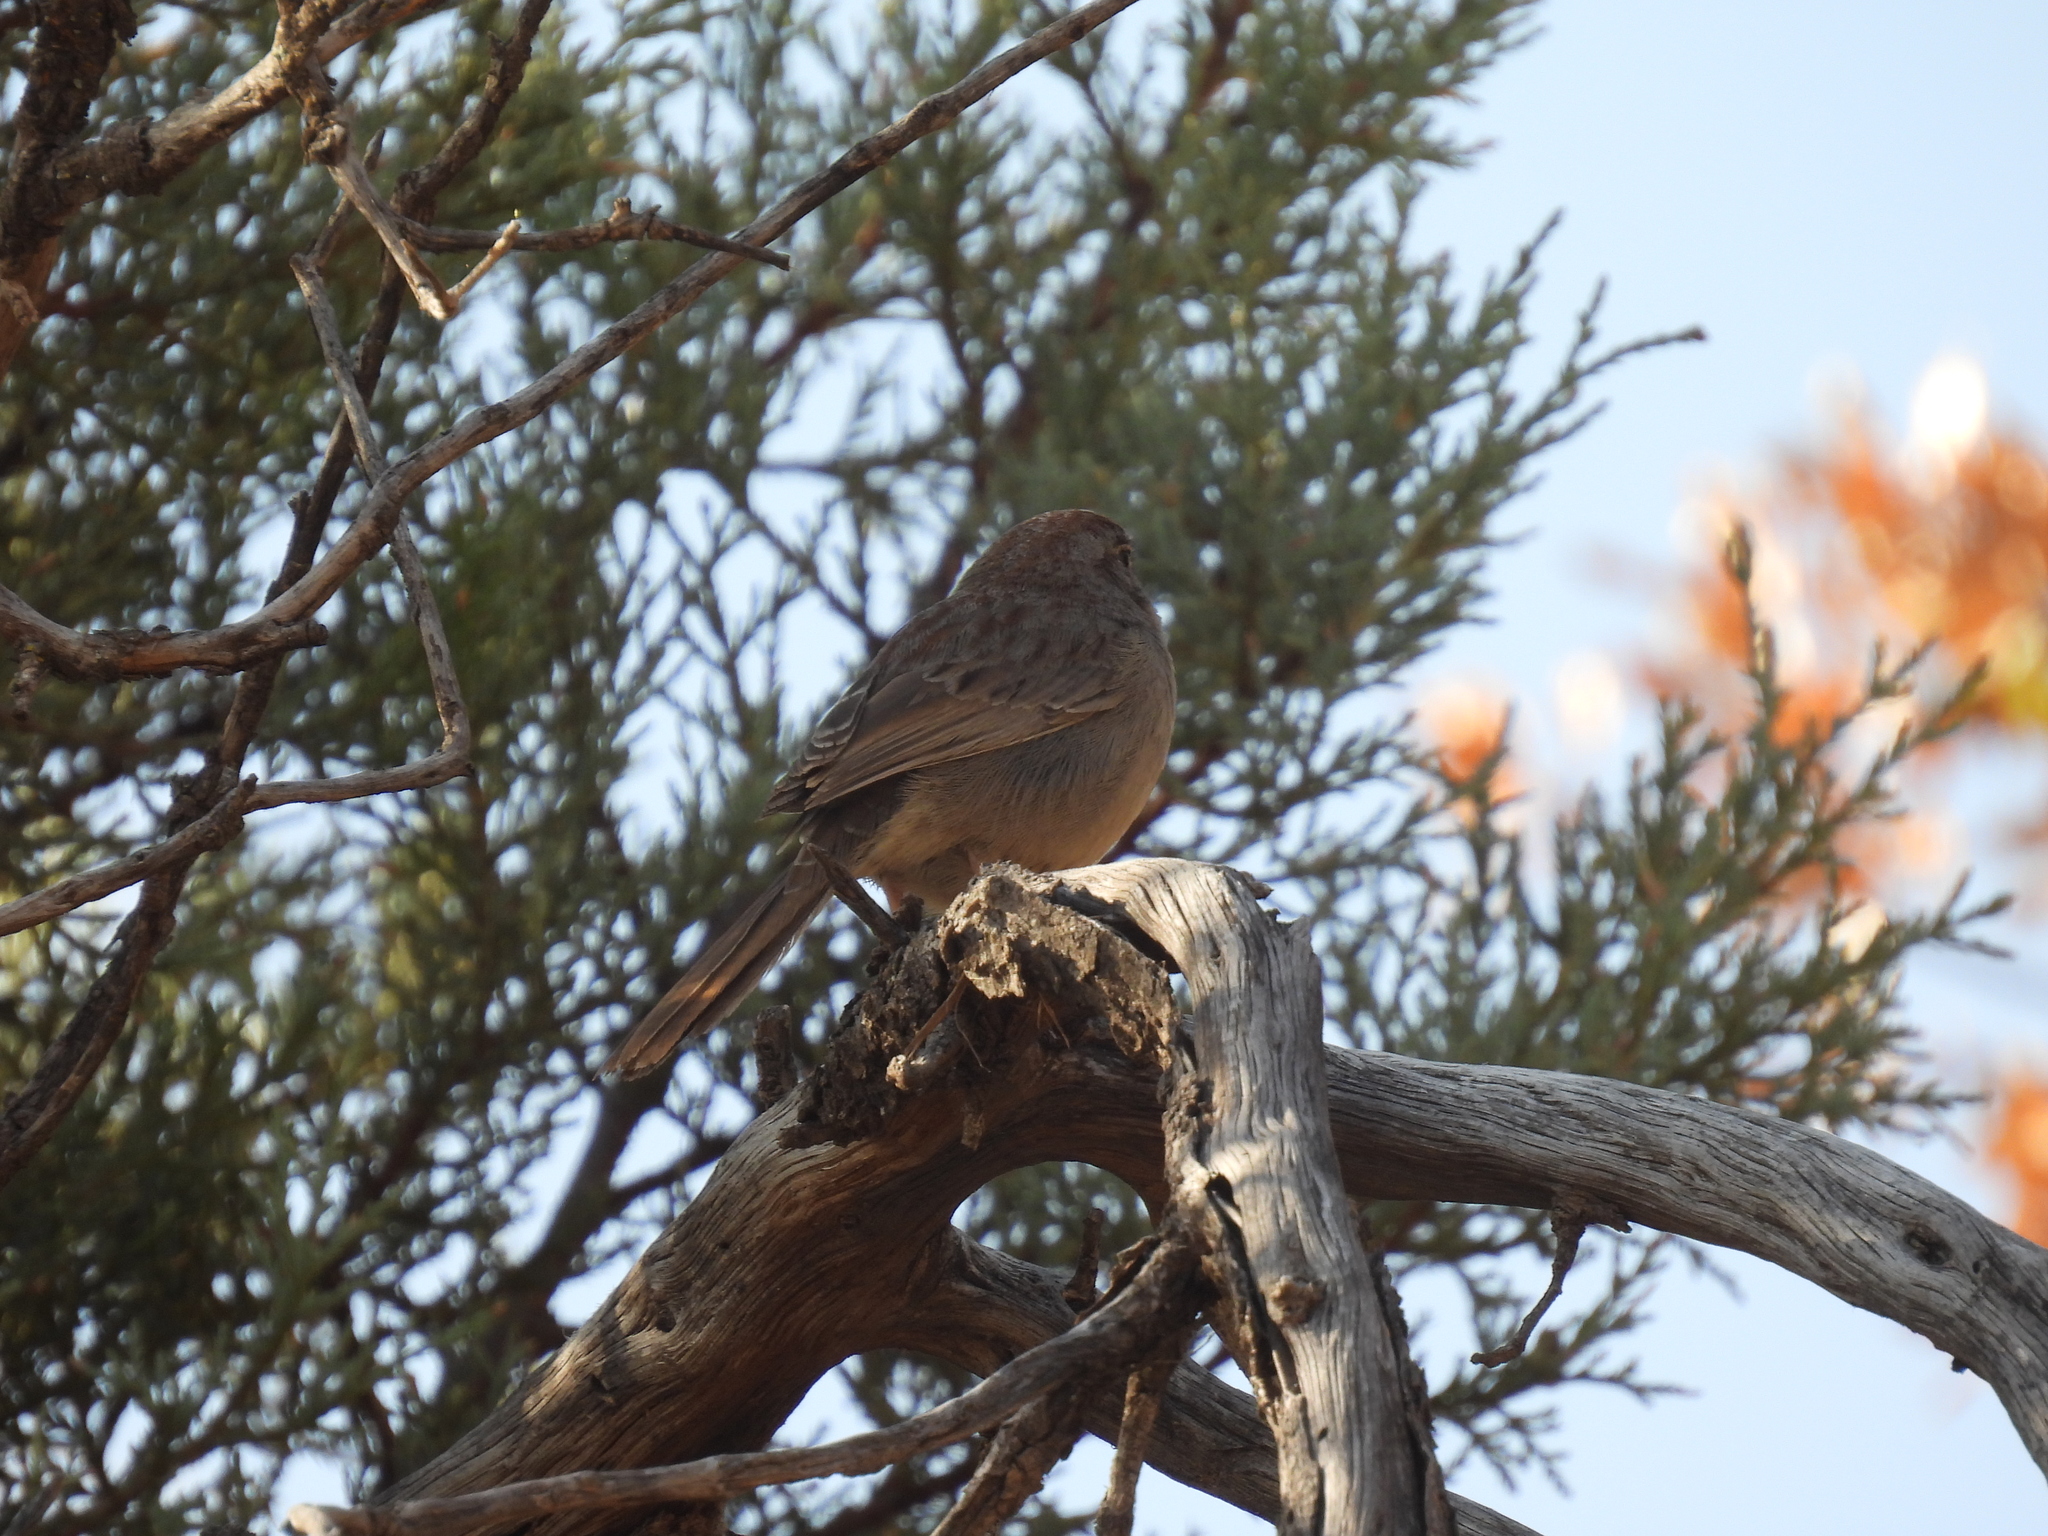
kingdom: Animalia
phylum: Chordata
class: Aves
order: Passeriformes
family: Passerellidae
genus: Aimophila
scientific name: Aimophila ruficeps
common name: Rufous-crowned sparrow
